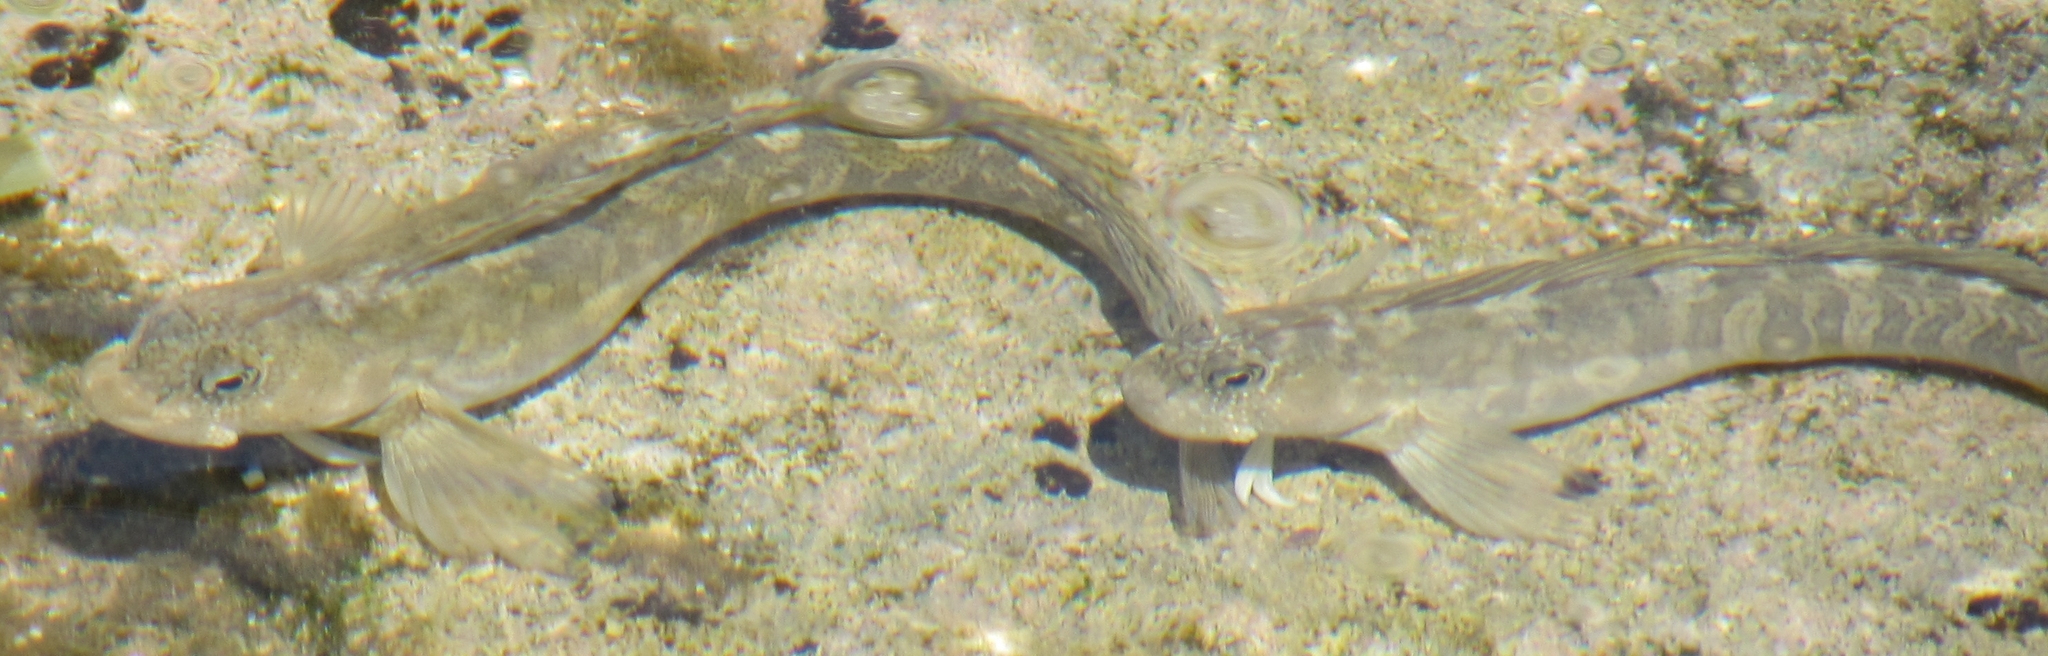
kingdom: Animalia
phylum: Chordata
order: Perciformes
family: Blenniidae
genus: Istiblennius
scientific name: Istiblennius zebra
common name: Zebra blenny
